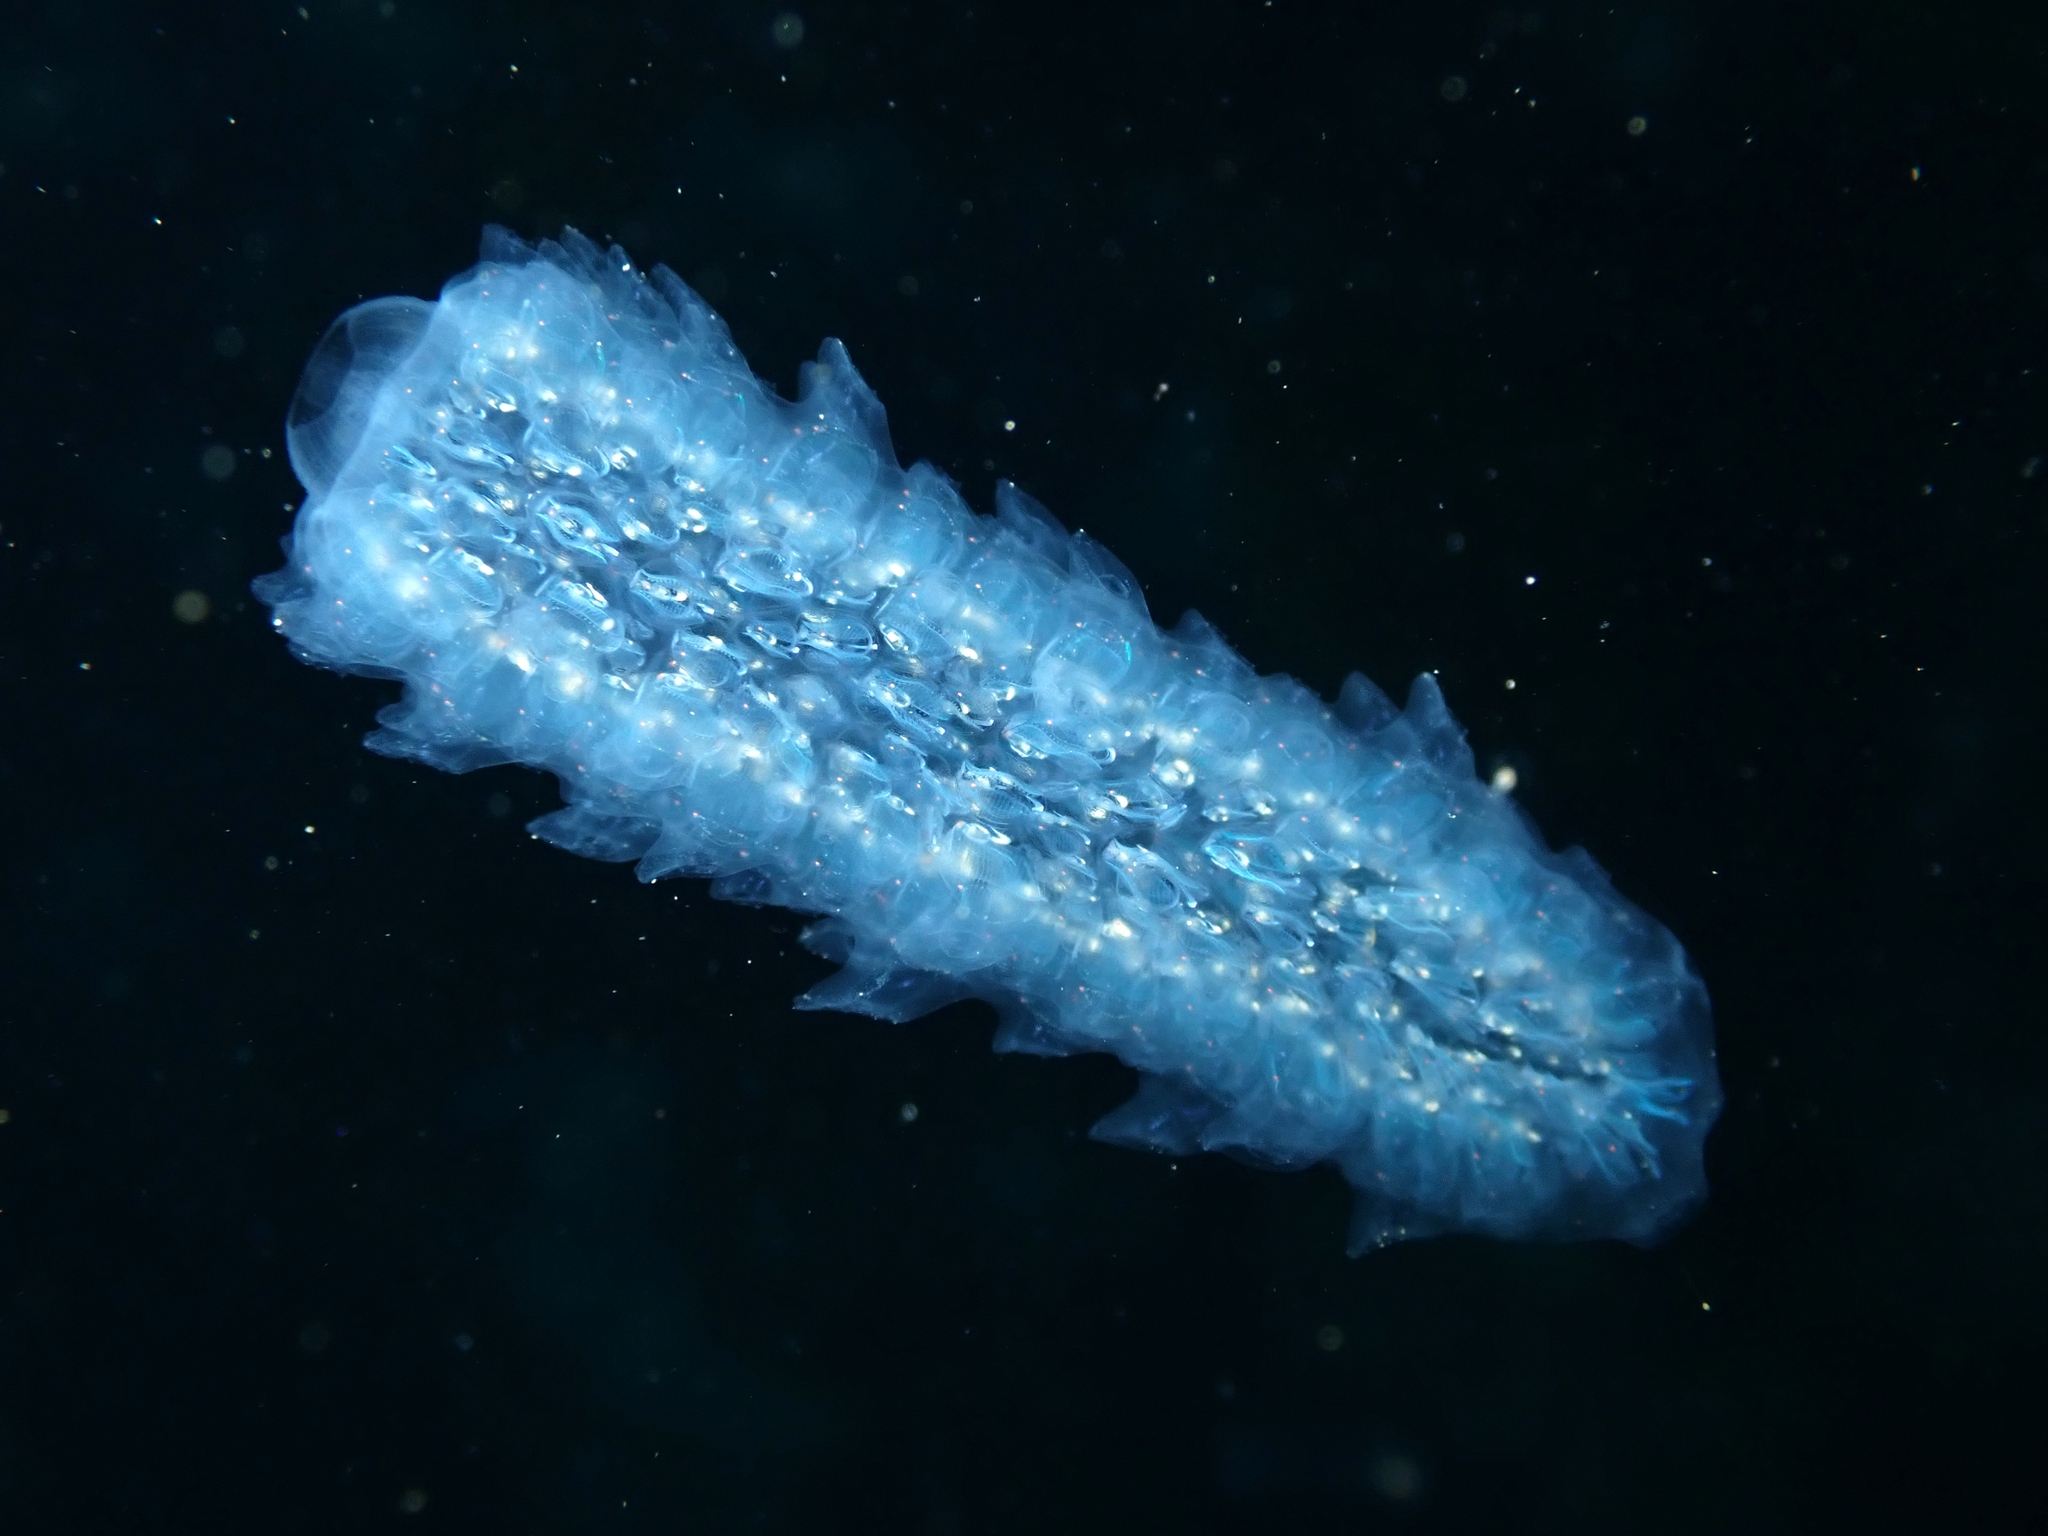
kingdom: Animalia
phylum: Chordata
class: Thaliacea
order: Pyrosomatida
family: Pyrosomatidae
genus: Pyrosoma
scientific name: Pyrosoma atlanticum
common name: Atlantic pyrosomes
